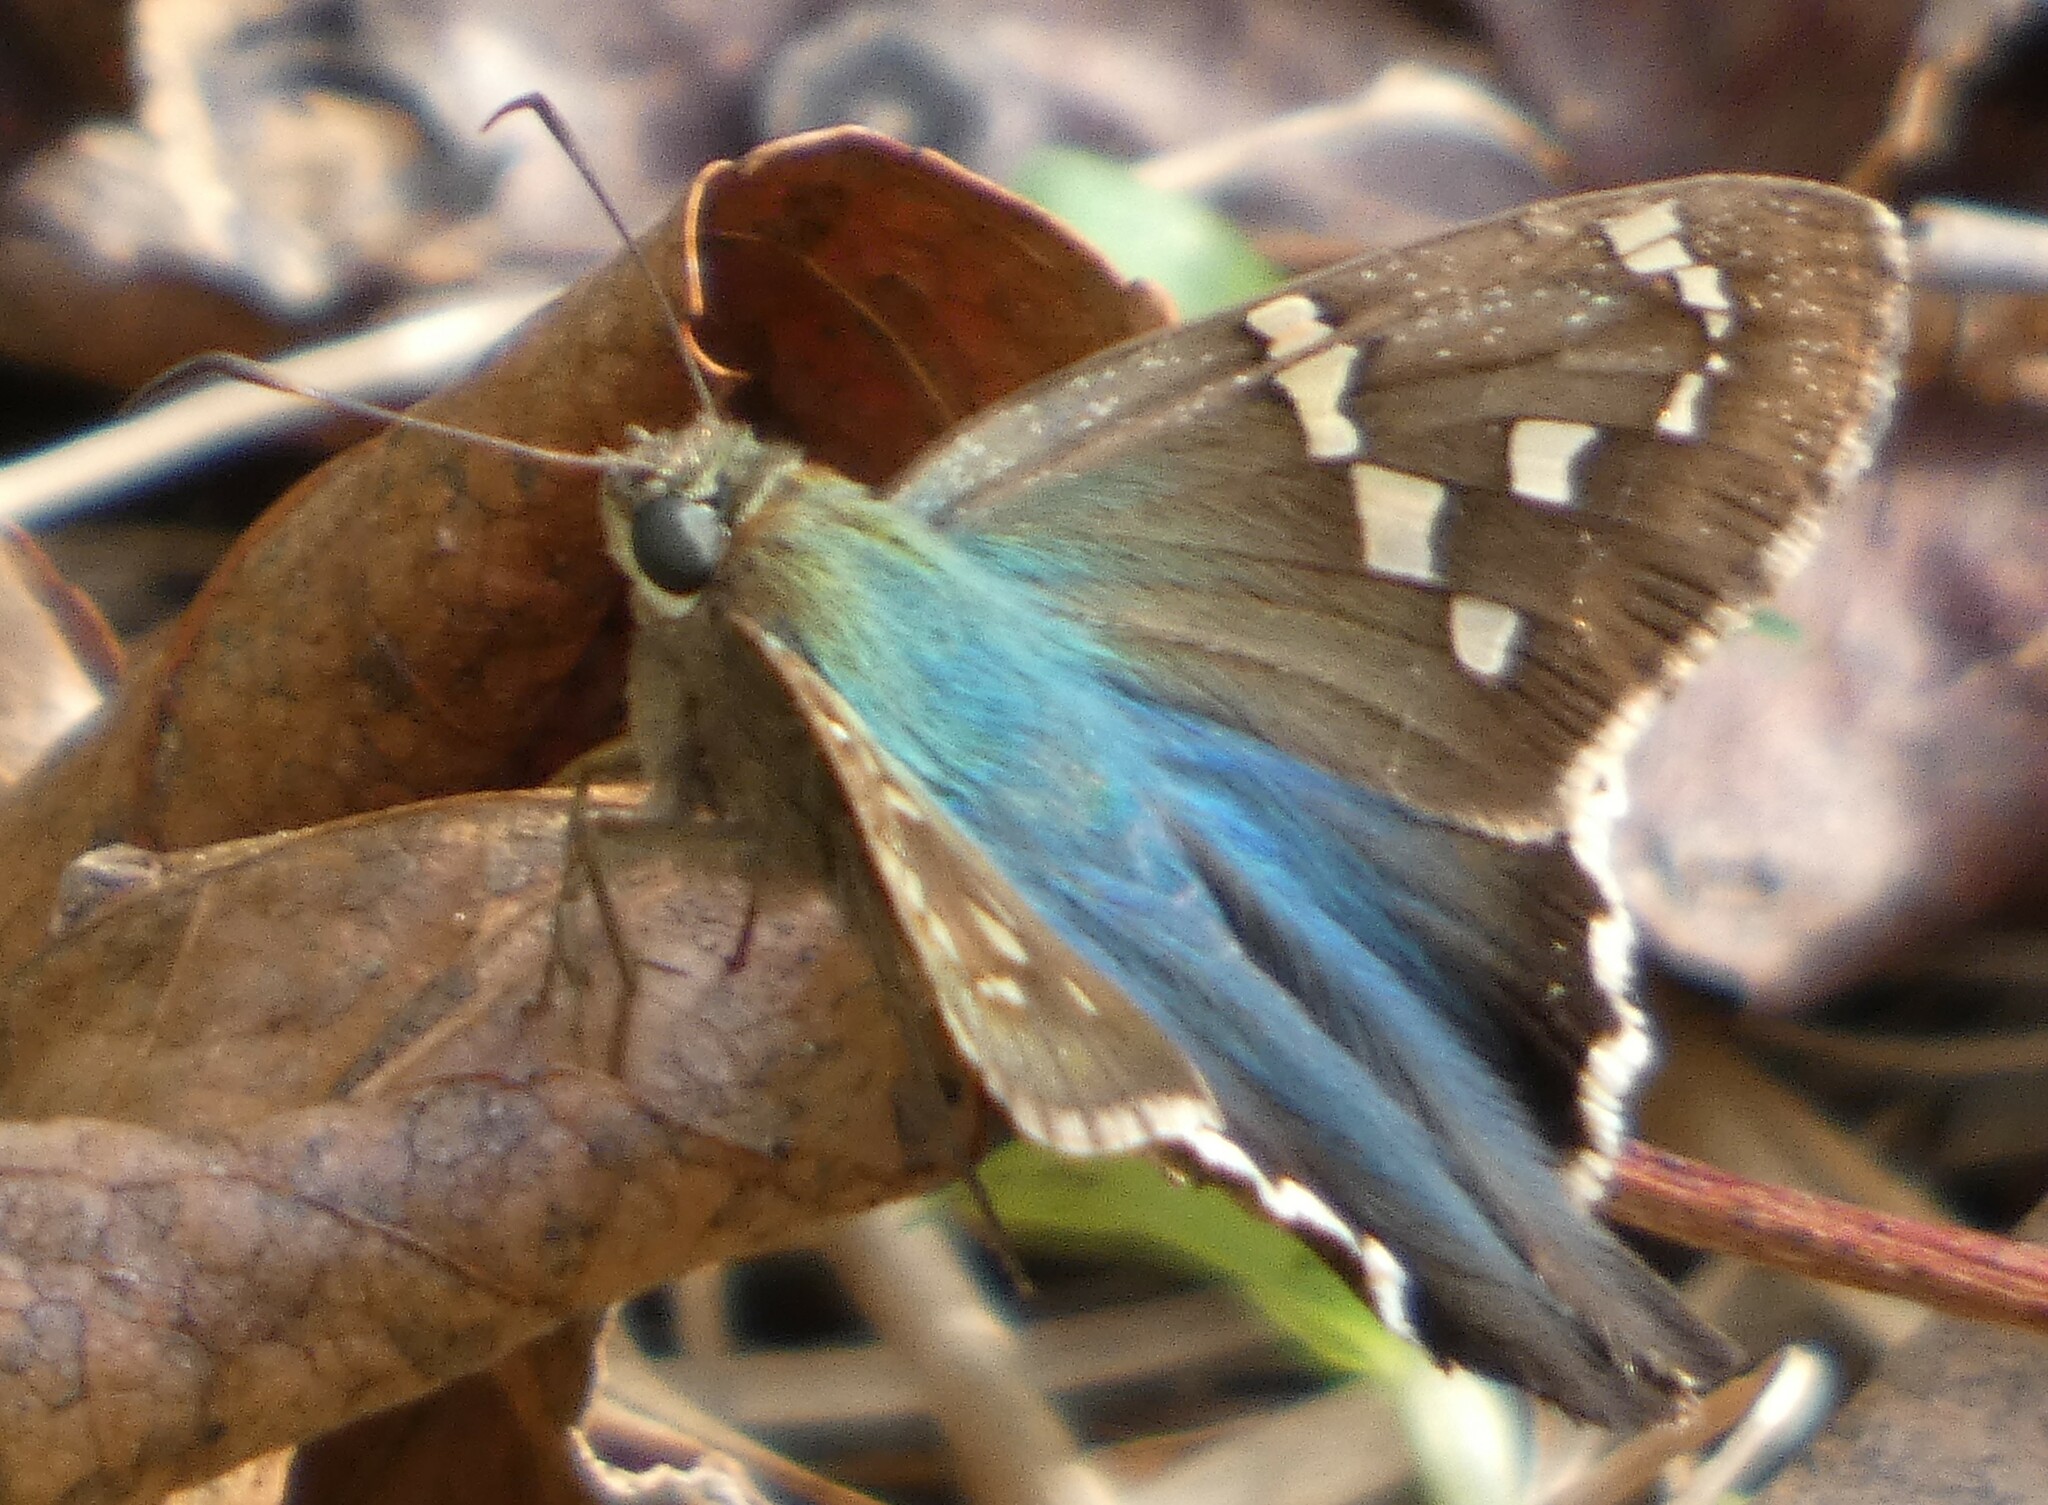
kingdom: Animalia
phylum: Arthropoda
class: Insecta
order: Lepidoptera
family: Hesperiidae
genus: Urbanus
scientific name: Urbanus proteus
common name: Long-tailed skipper
